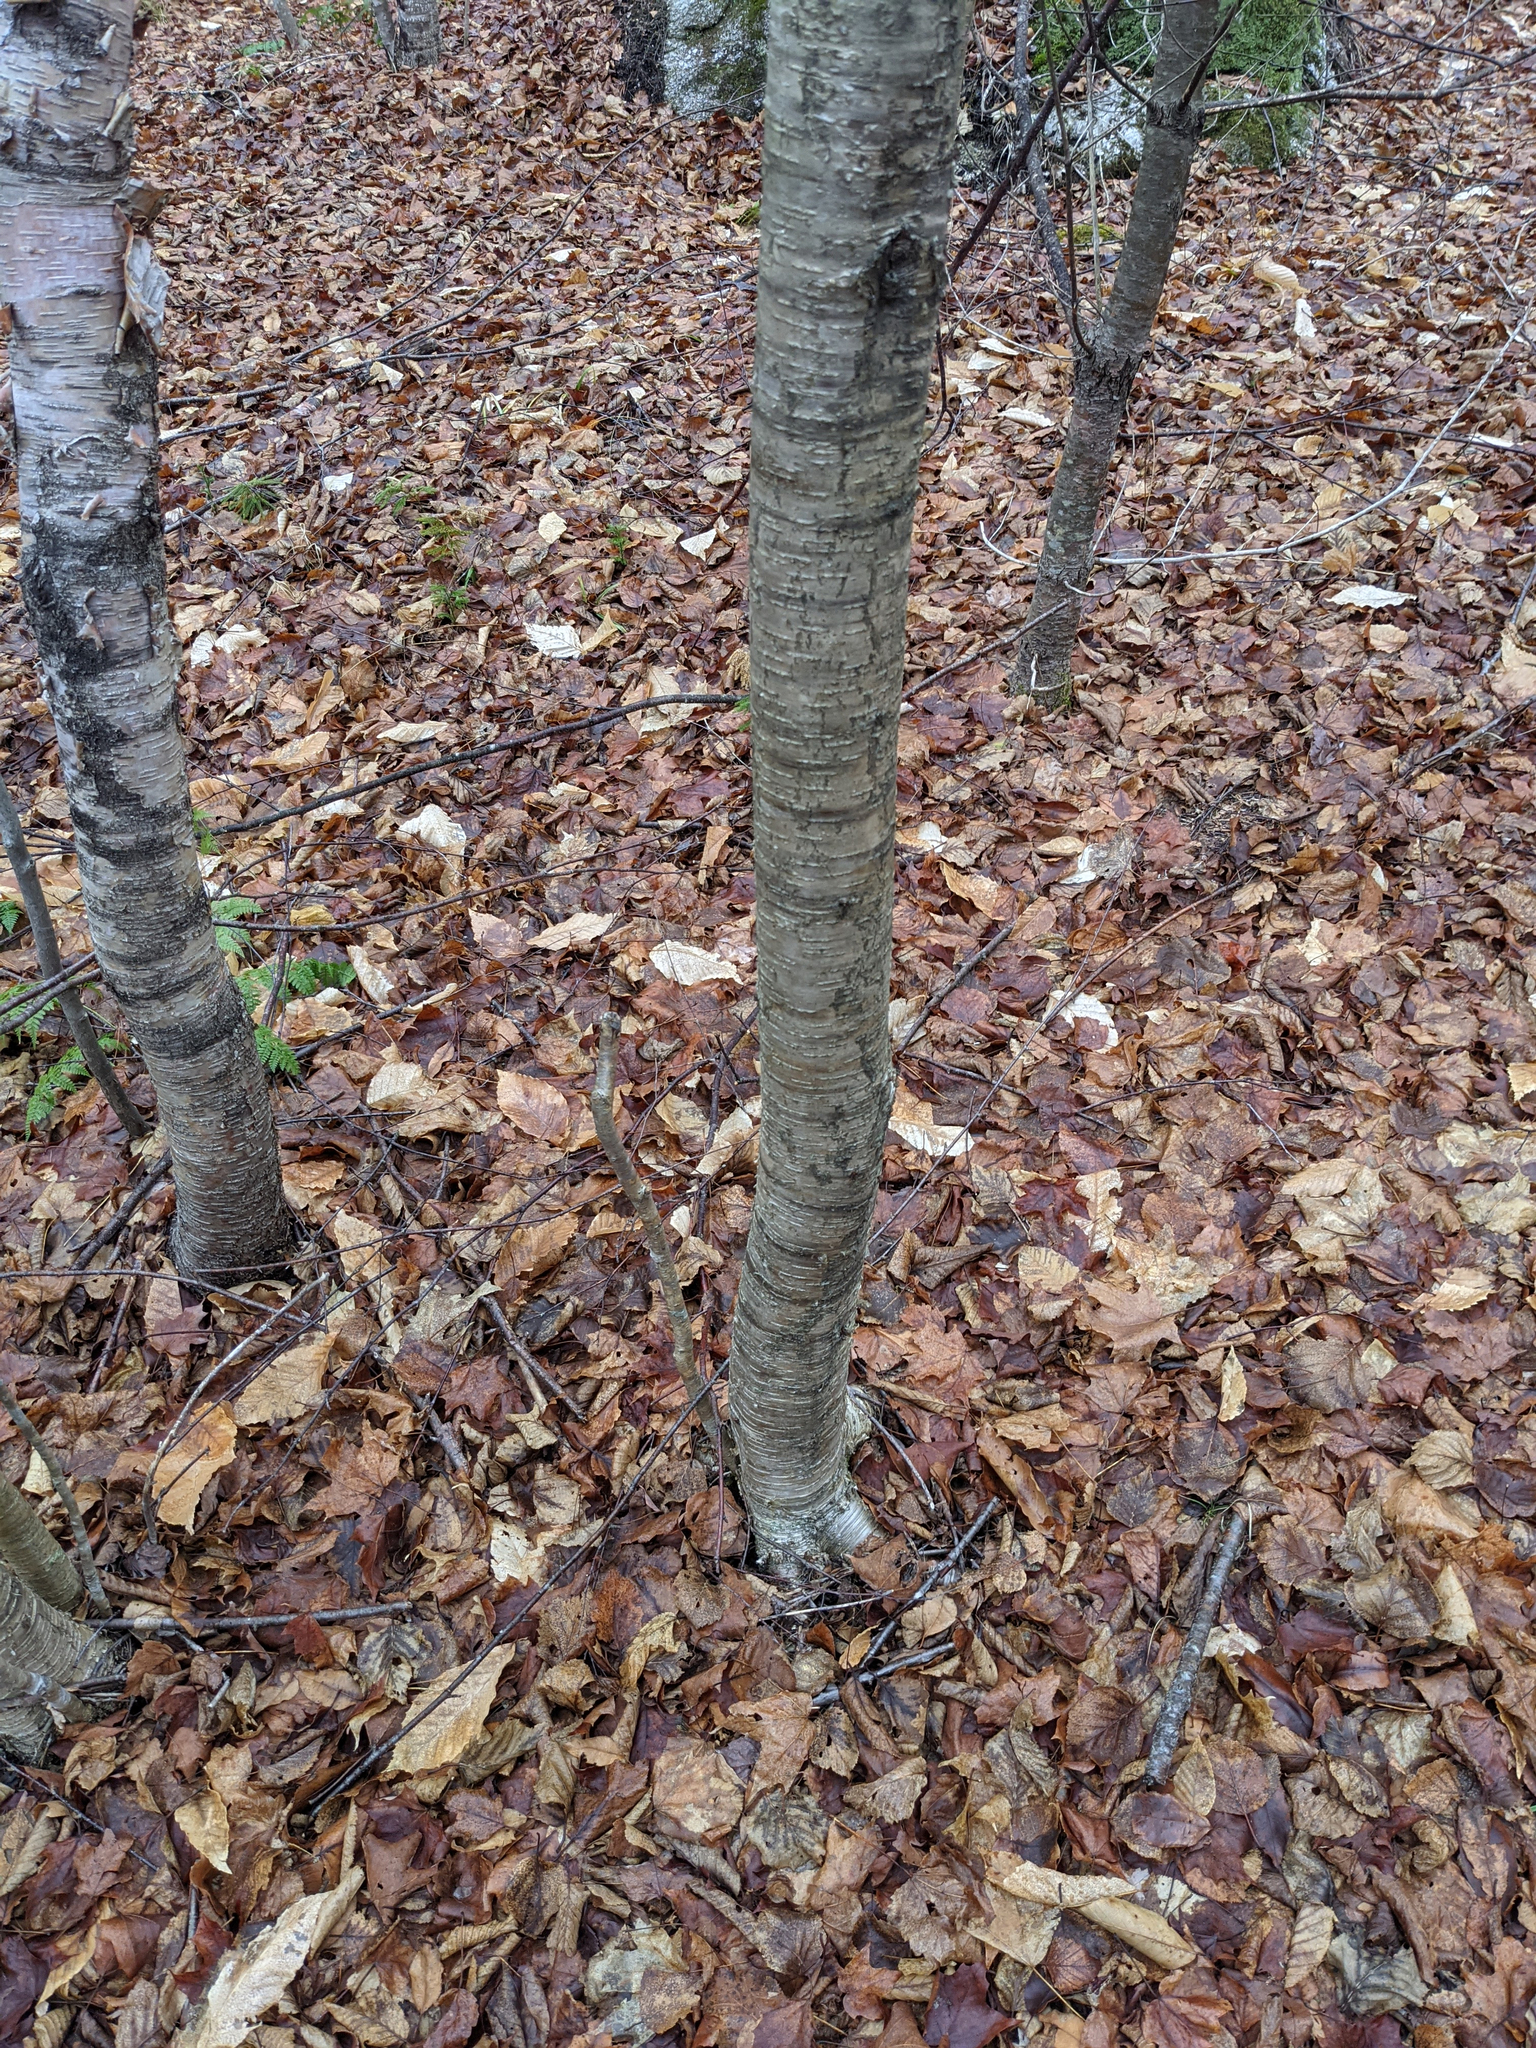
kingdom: Plantae
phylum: Tracheophyta
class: Magnoliopsida
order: Fagales
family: Betulaceae
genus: Betula
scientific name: Betula alleghaniensis
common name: Yellow birch
